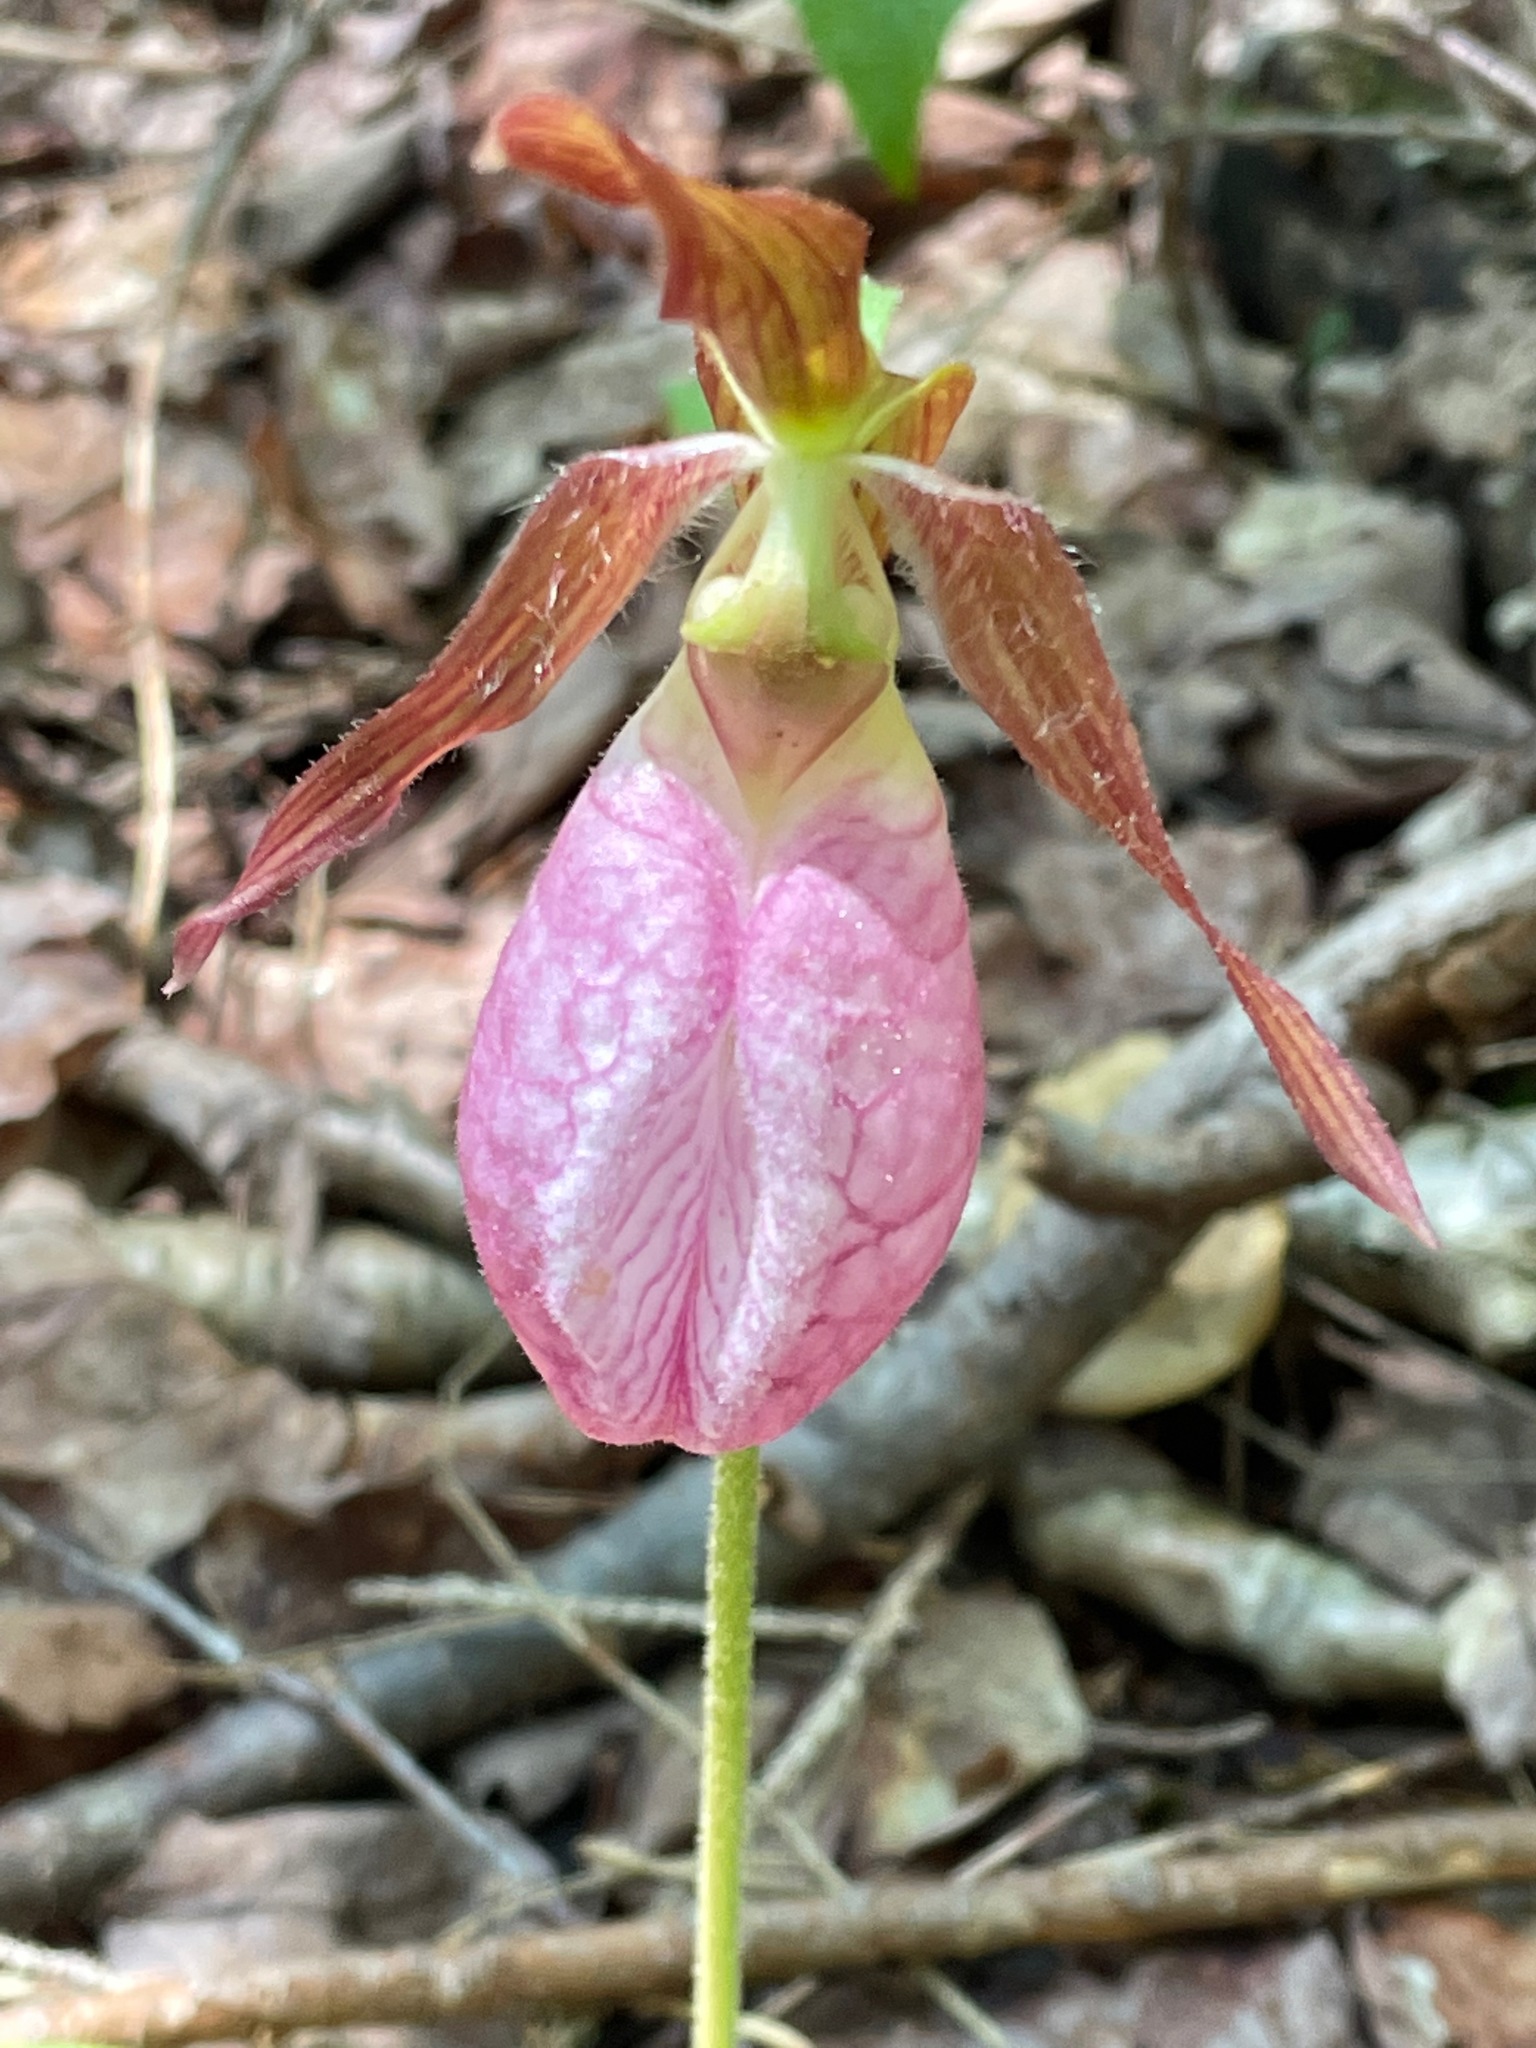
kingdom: Plantae
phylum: Tracheophyta
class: Liliopsida
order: Asparagales
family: Orchidaceae
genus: Cypripedium
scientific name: Cypripedium acaule
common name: Pink lady's-slipper
